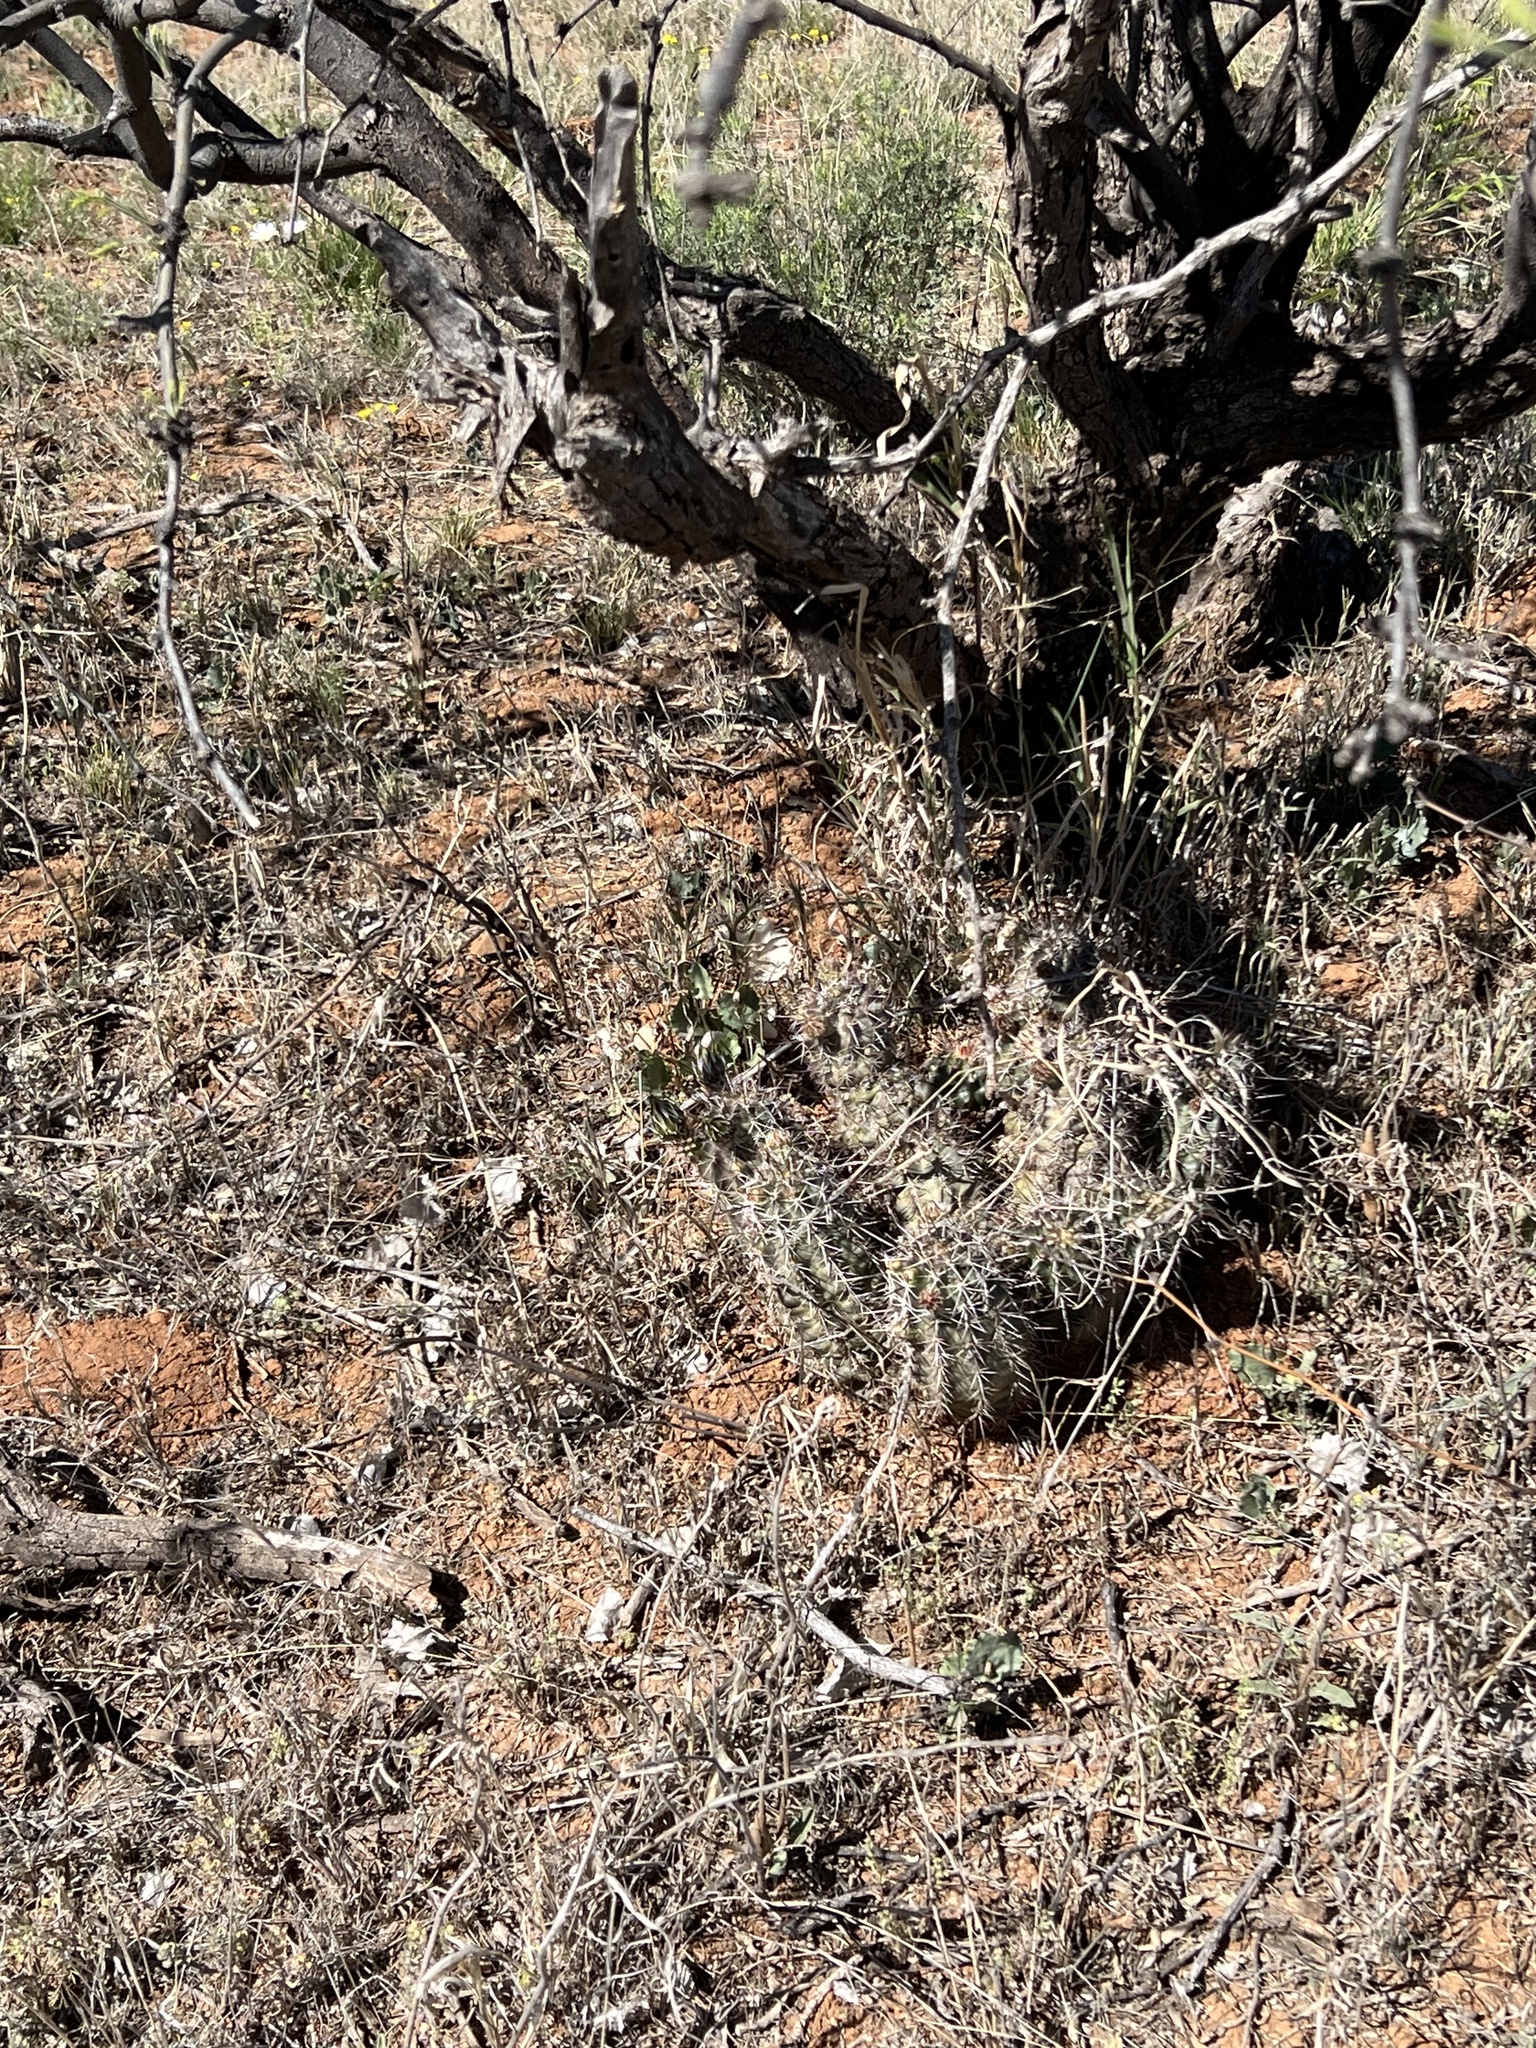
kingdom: Plantae
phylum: Tracheophyta
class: Magnoliopsida
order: Caryophyllales
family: Cactaceae
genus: Echinocereus
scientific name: Echinocereus fendleri
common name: Fendler's hedgehog cactus
